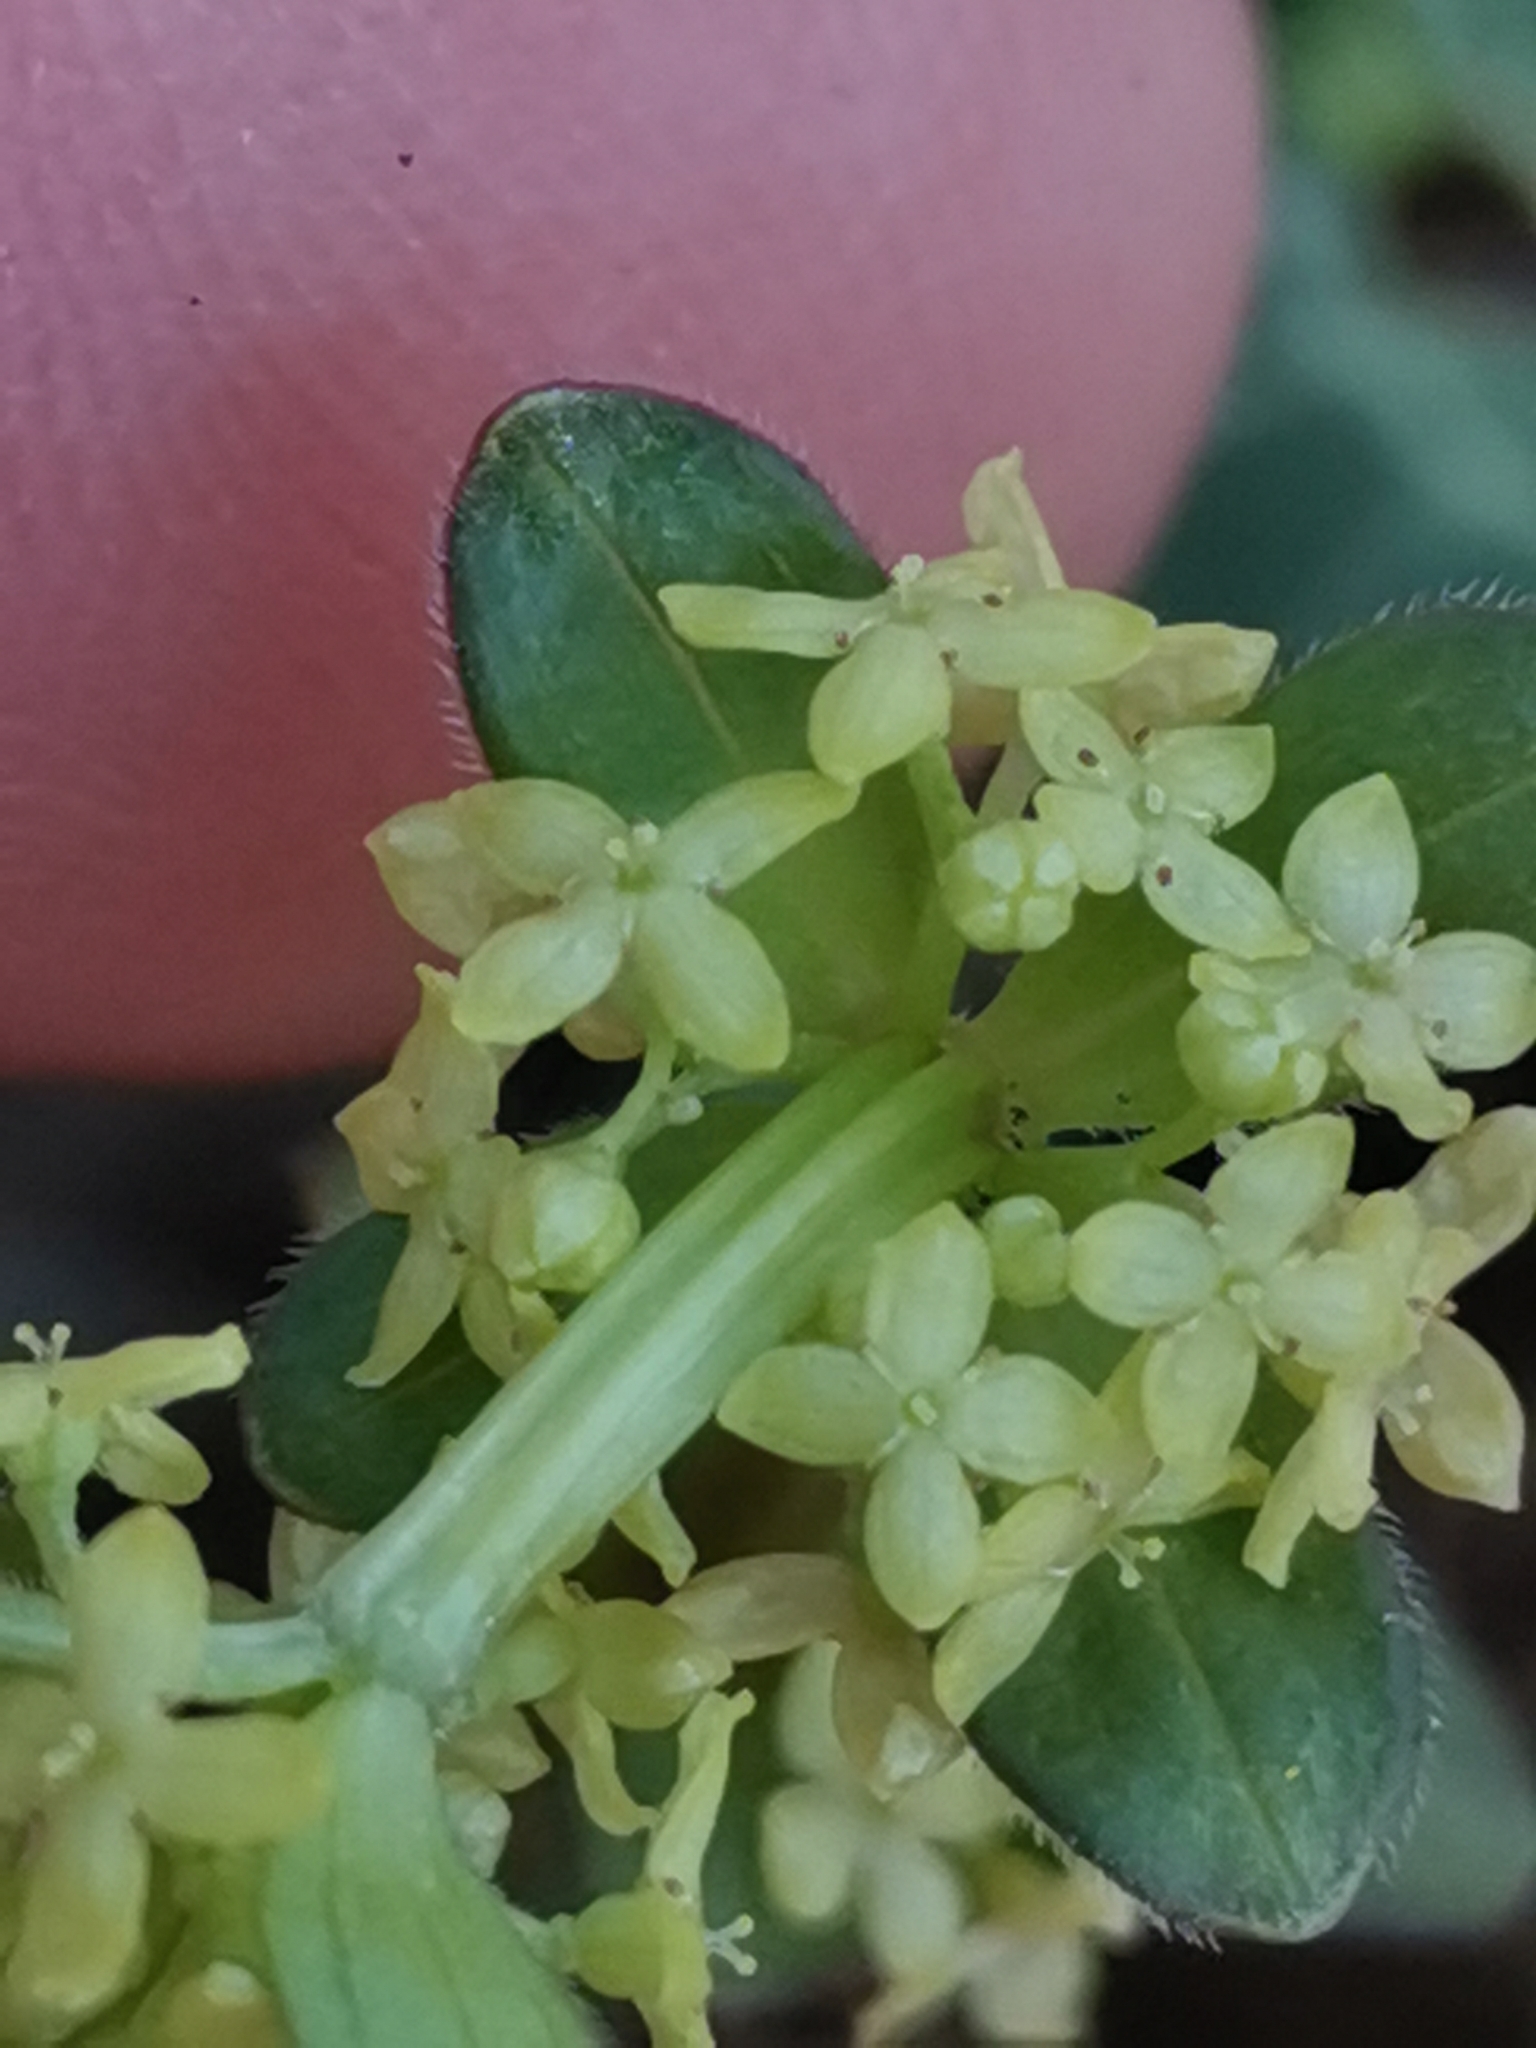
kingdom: Plantae
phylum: Tracheophyta
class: Magnoliopsida
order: Gentianales
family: Rubiaceae
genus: Cruciata
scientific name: Cruciata glabra
